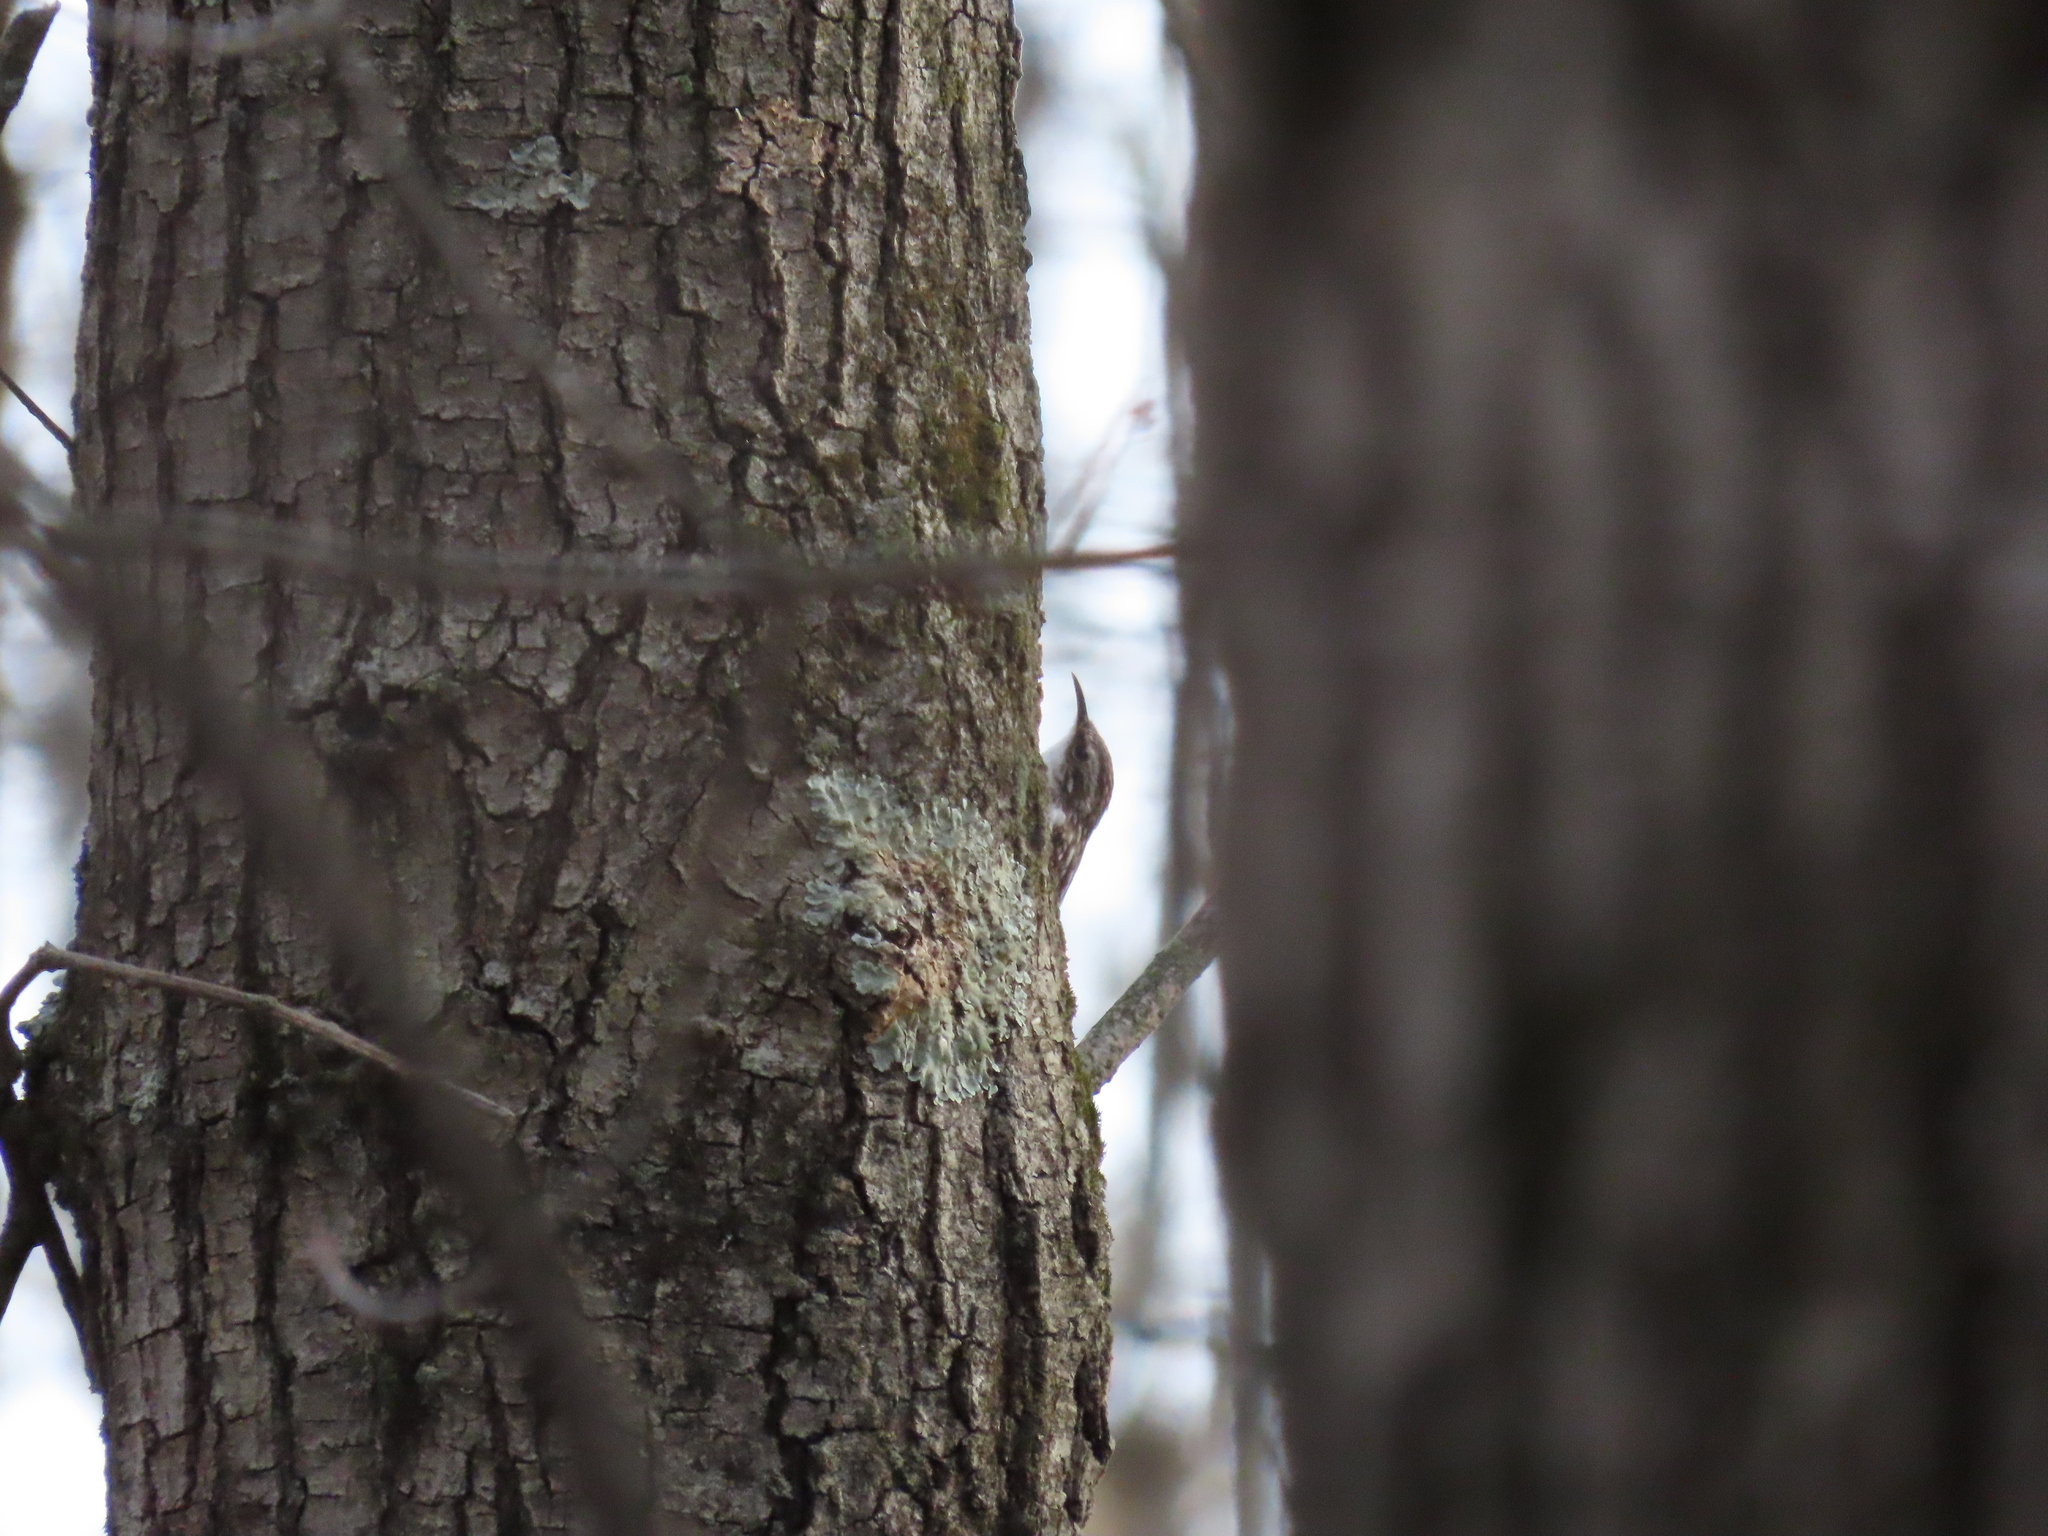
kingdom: Animalia
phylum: Chordata
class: Aves
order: Passeriformes
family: Certhiidae
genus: Certhia
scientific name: Certhia americana
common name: Brown creeper
